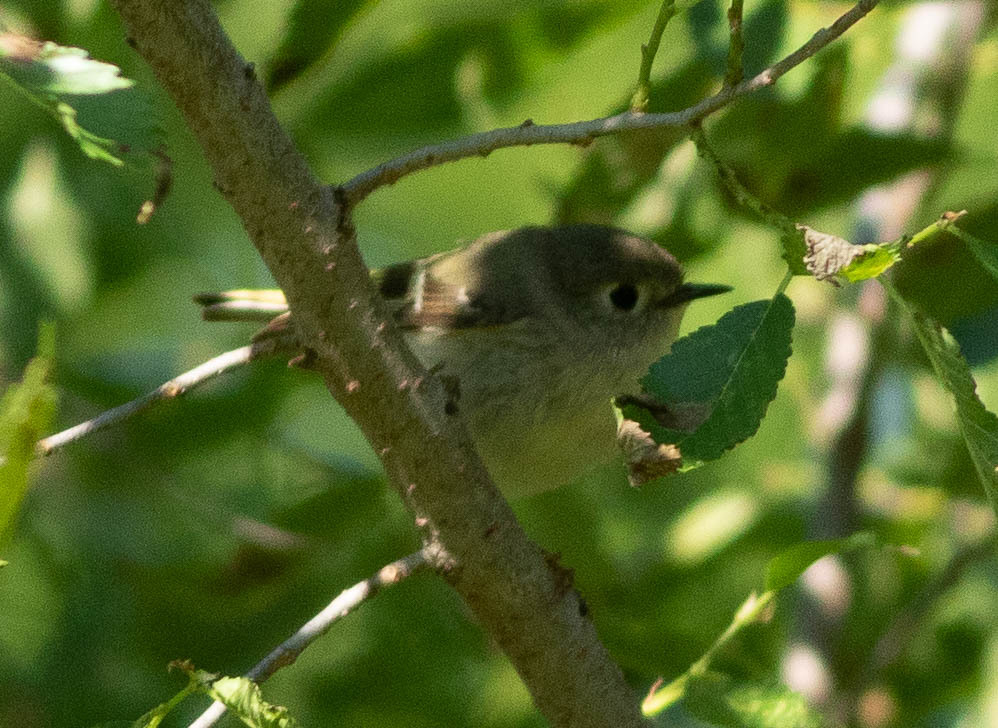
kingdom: Animalia
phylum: Chordata
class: Aves
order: Passeriformes
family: Regulidae
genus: Regulus
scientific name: Regulus calendula
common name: Ruby-crowned kinglet
